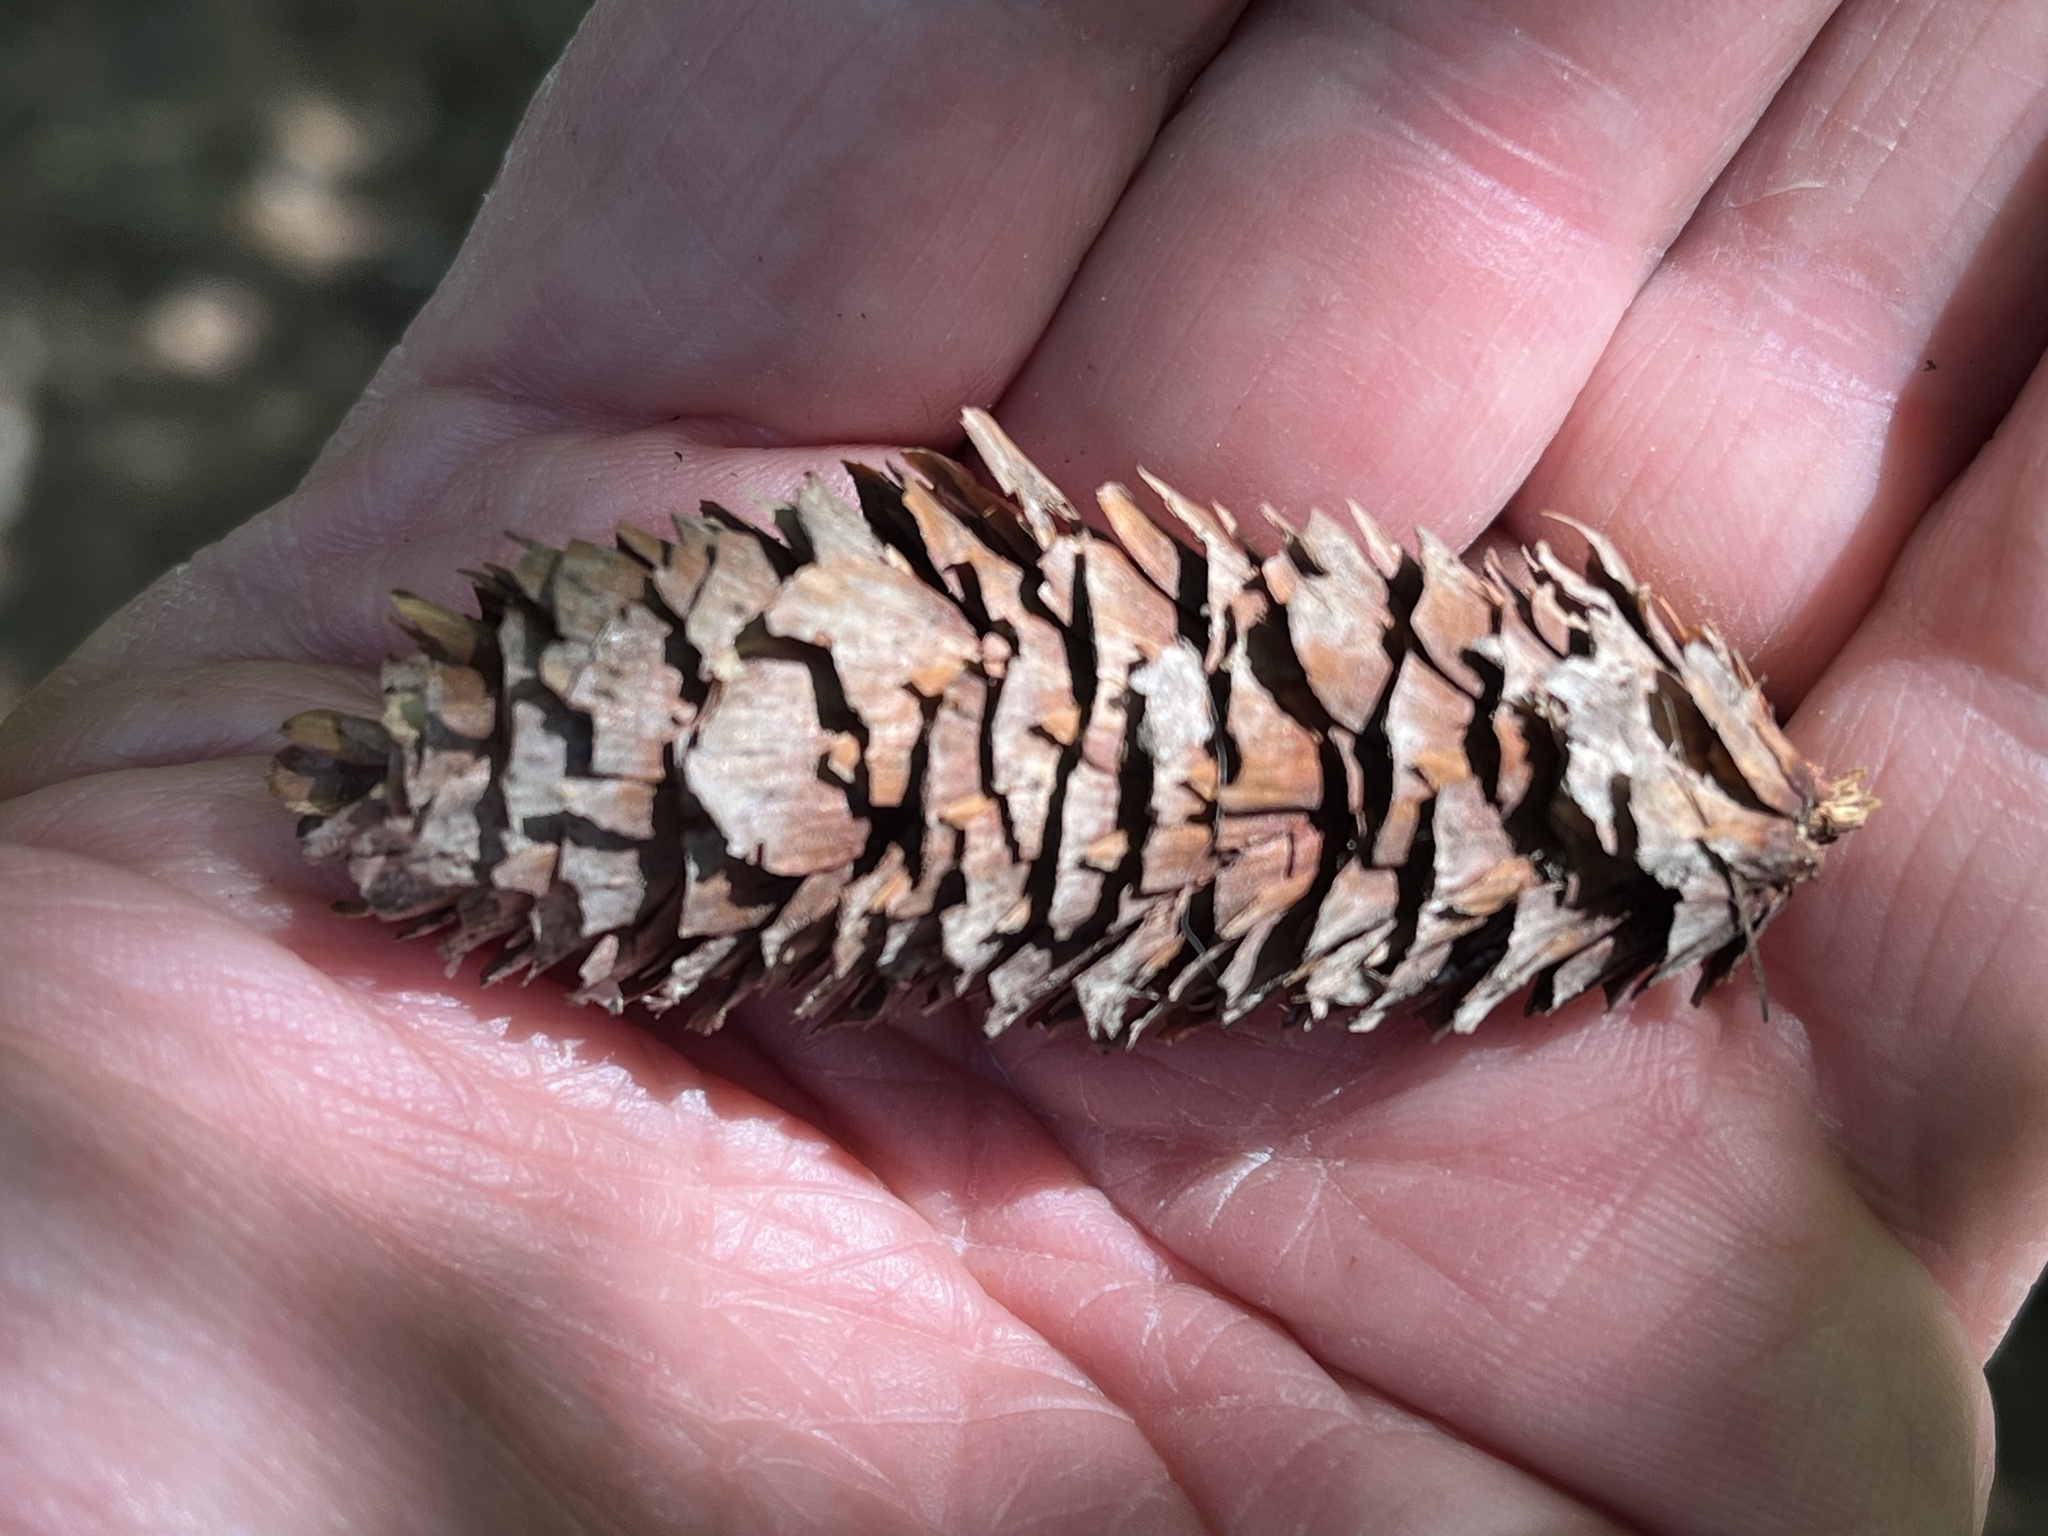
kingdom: Plantae
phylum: Tracheophyta
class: Pinopsida
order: Pinales
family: Pinaceae
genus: Pseudotsuga
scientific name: Pseudotsuga menziesii
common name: Douglas fir
